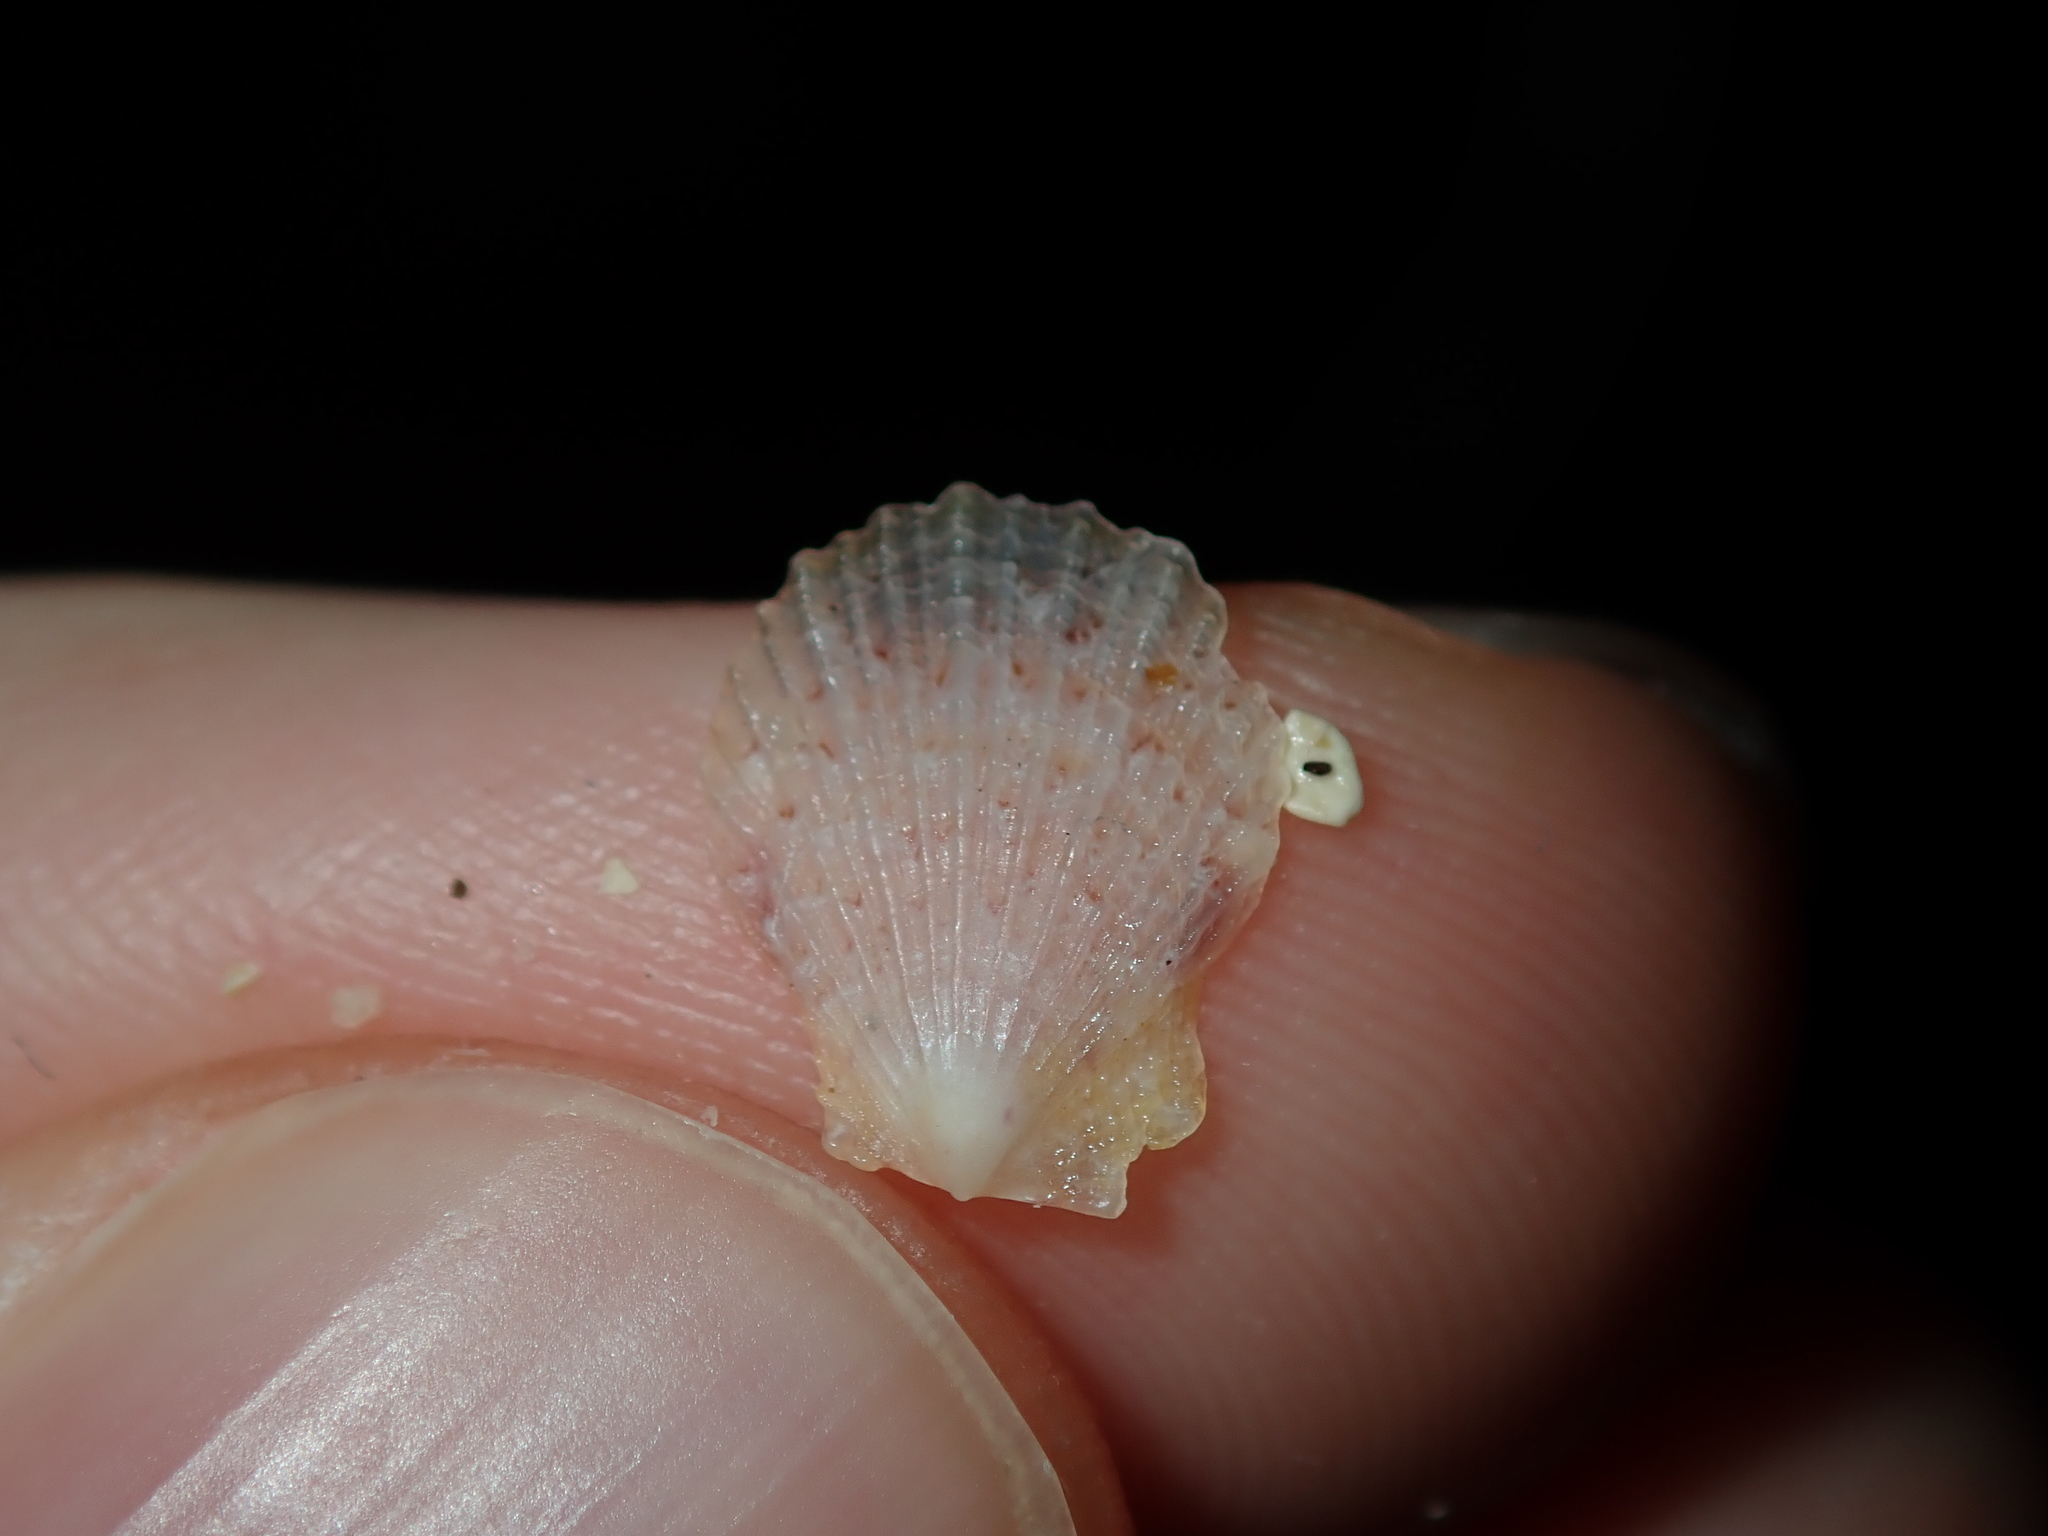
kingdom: Animalia
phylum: Mollusca
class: Bivalvia
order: Pectinida
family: Pectinidae
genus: Scaeochlamys
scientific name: Scaeochlamys livida
